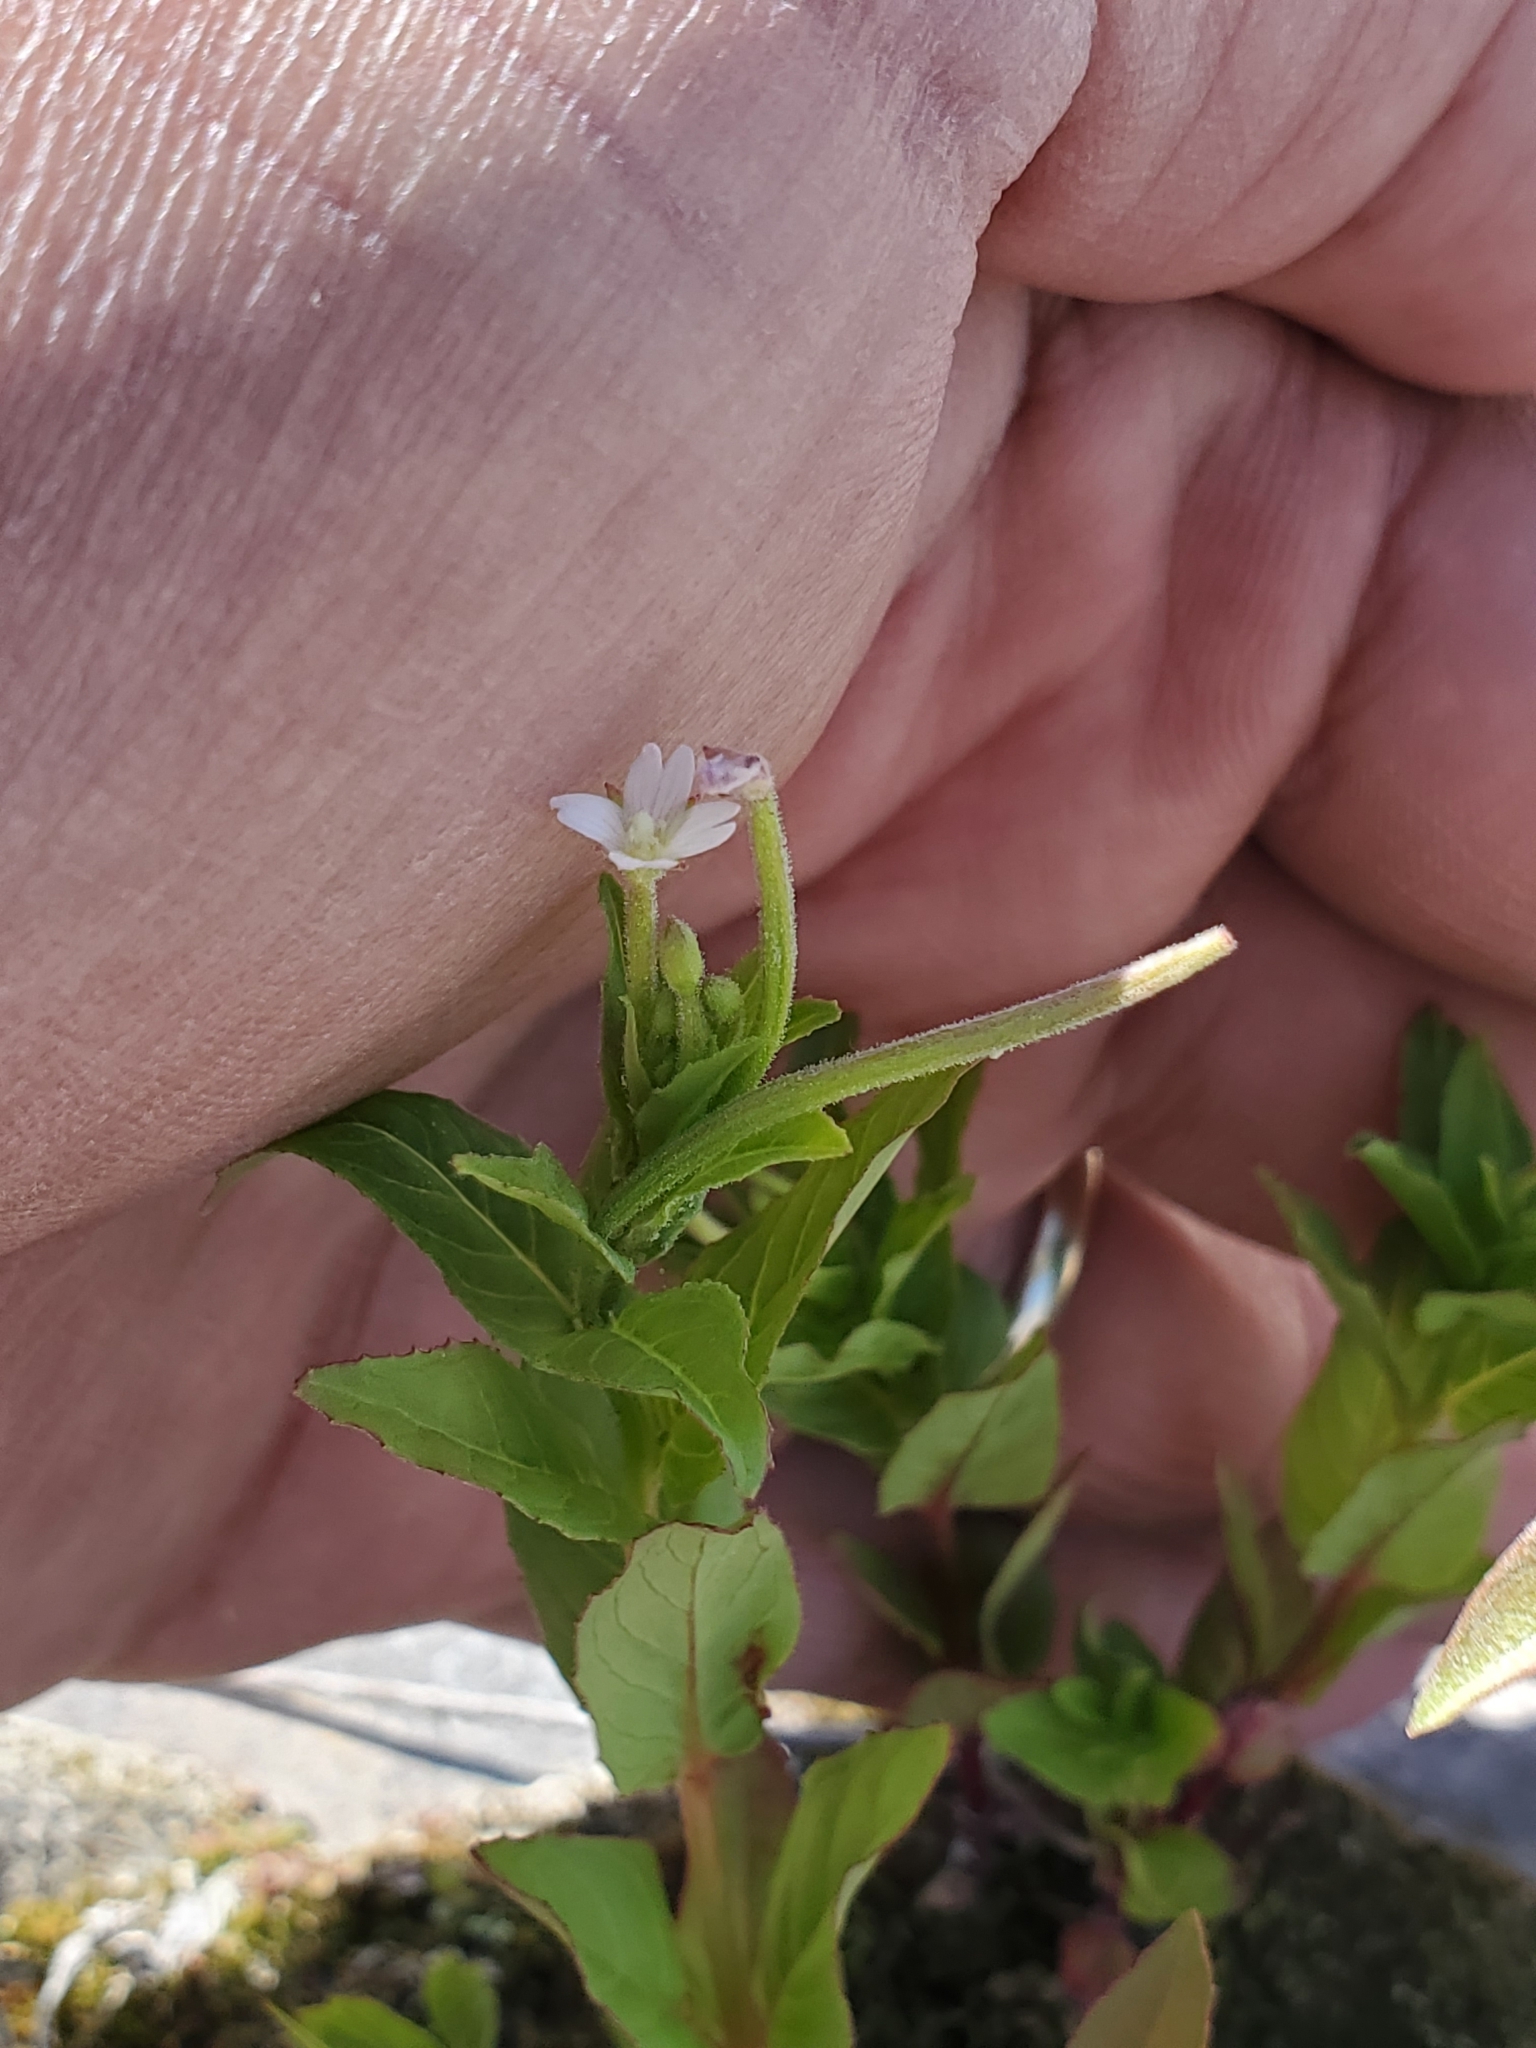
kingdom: Plantae
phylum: Tracheophyta
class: Magnoliopsida
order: Myrtales
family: Onagraceae
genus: Epilobium
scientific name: Epilobium ciliatum
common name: American willowherb
